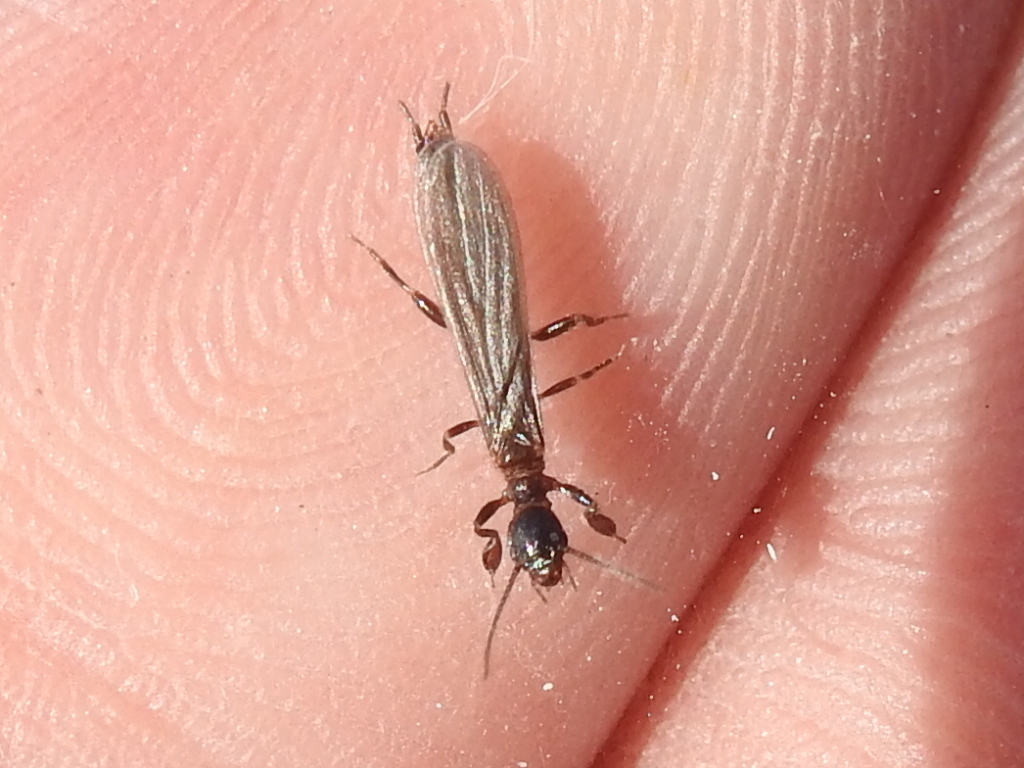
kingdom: Animalia
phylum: Arthropoda
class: Insecta
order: Embioptera
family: Oligotomidae
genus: Oligotoma
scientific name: Oligotoma nigra
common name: Black webspinner
